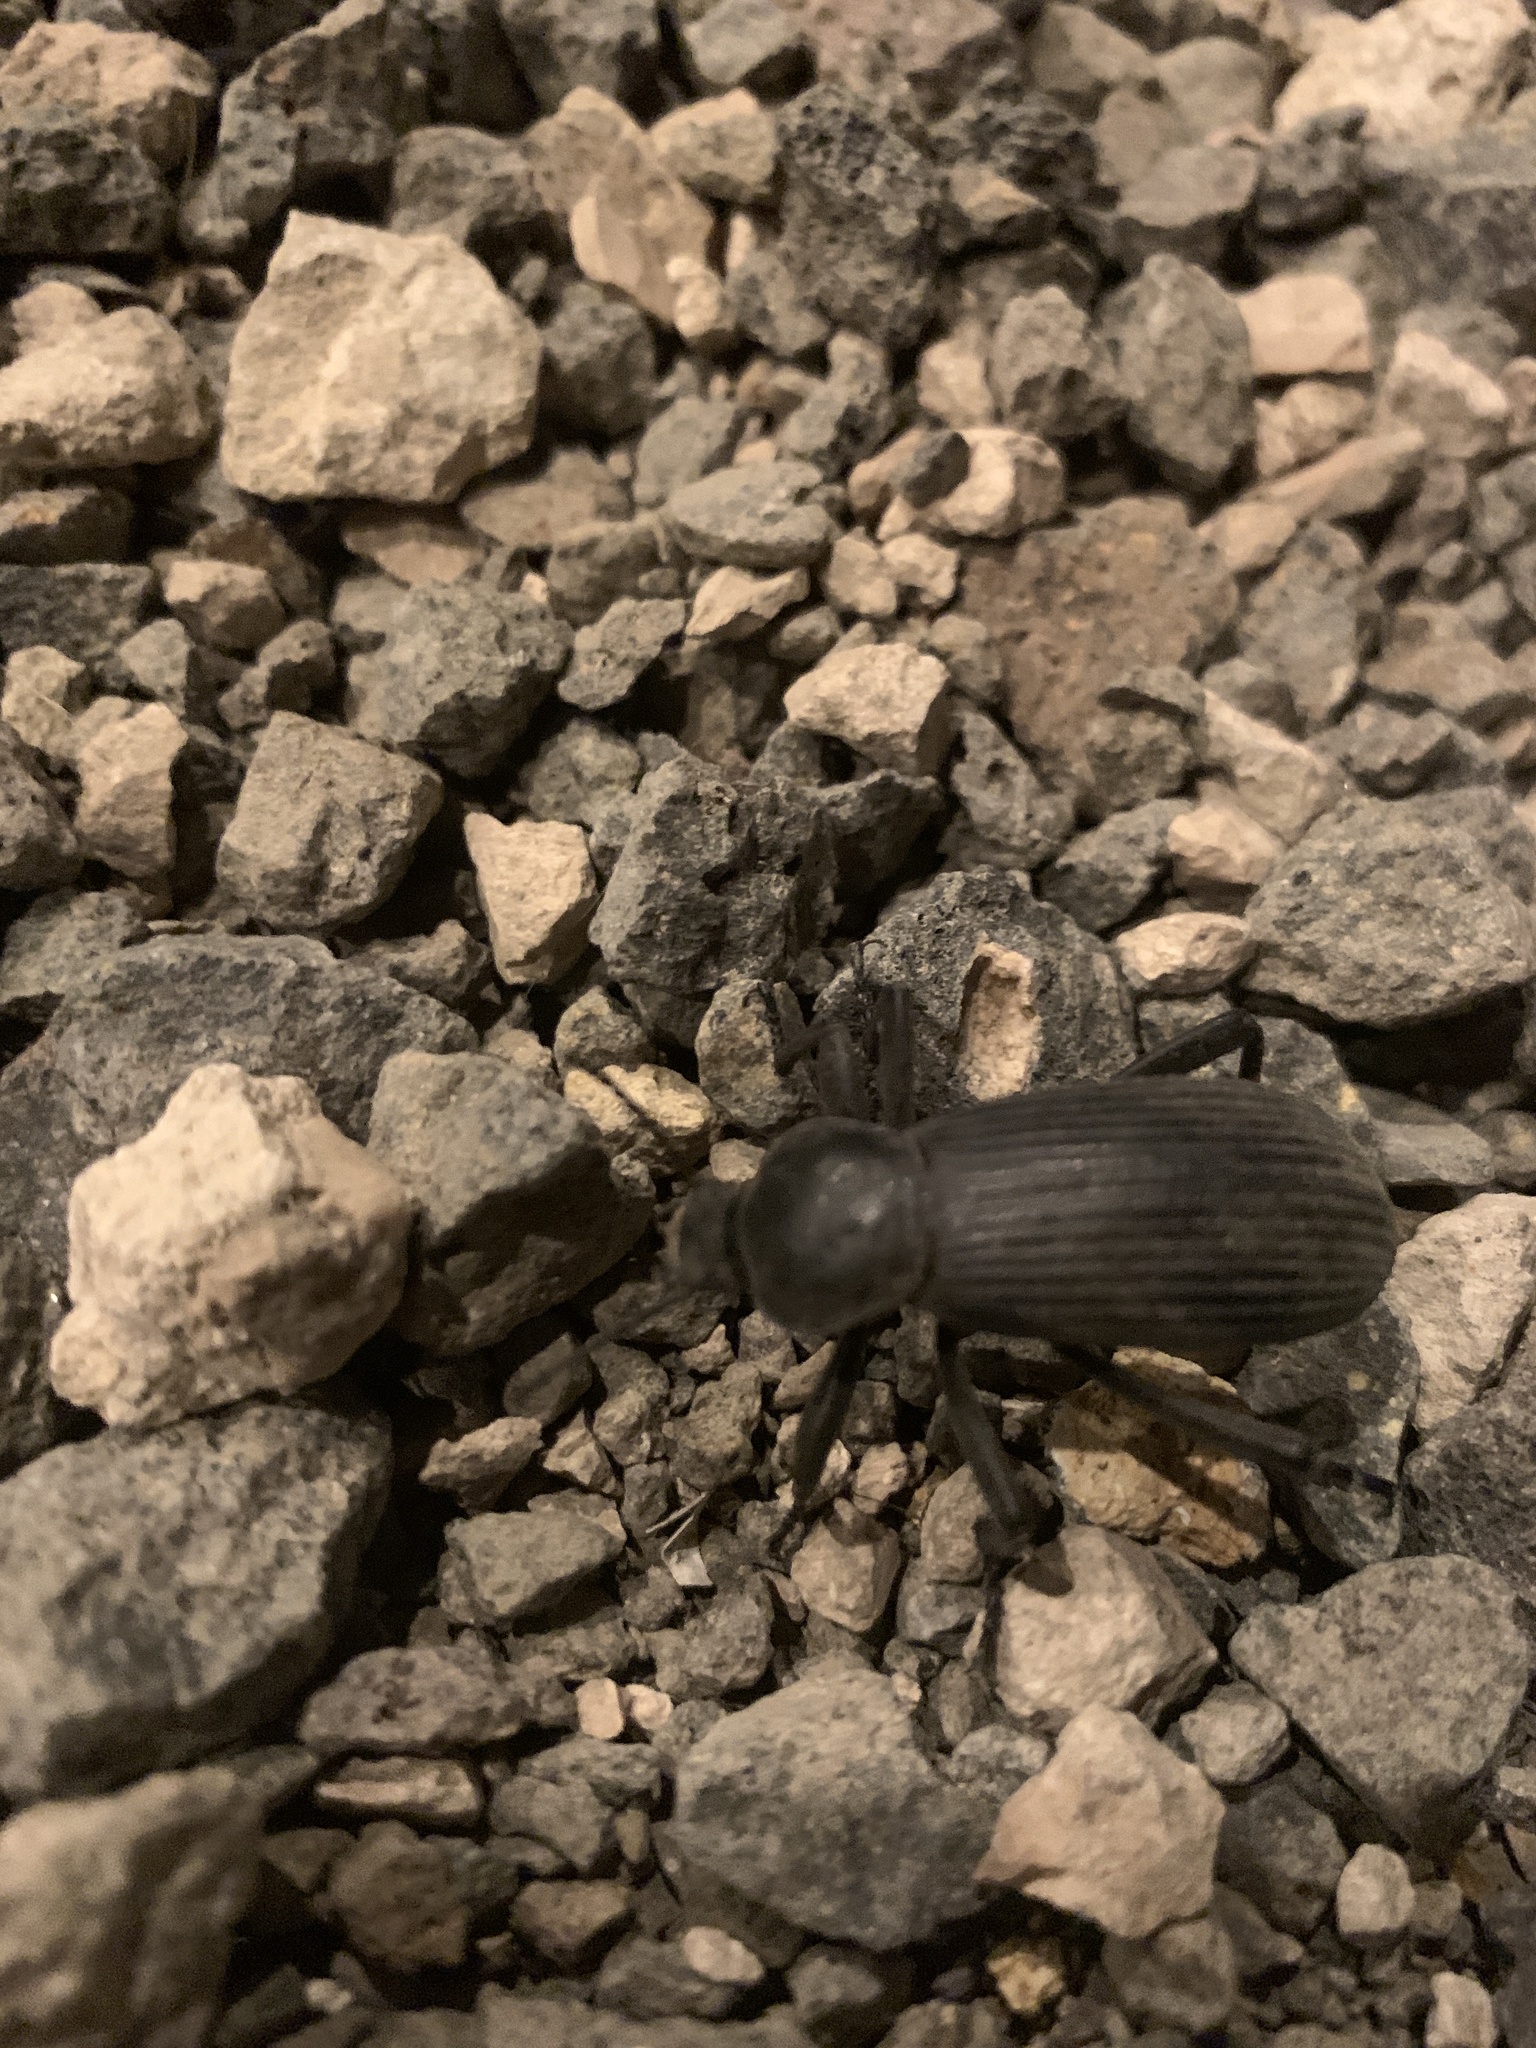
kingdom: Animalia
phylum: Arthropoda
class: Insecta
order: Coleoptera
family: Tenebrionidae
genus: Eleodes
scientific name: Eleodes obscura
